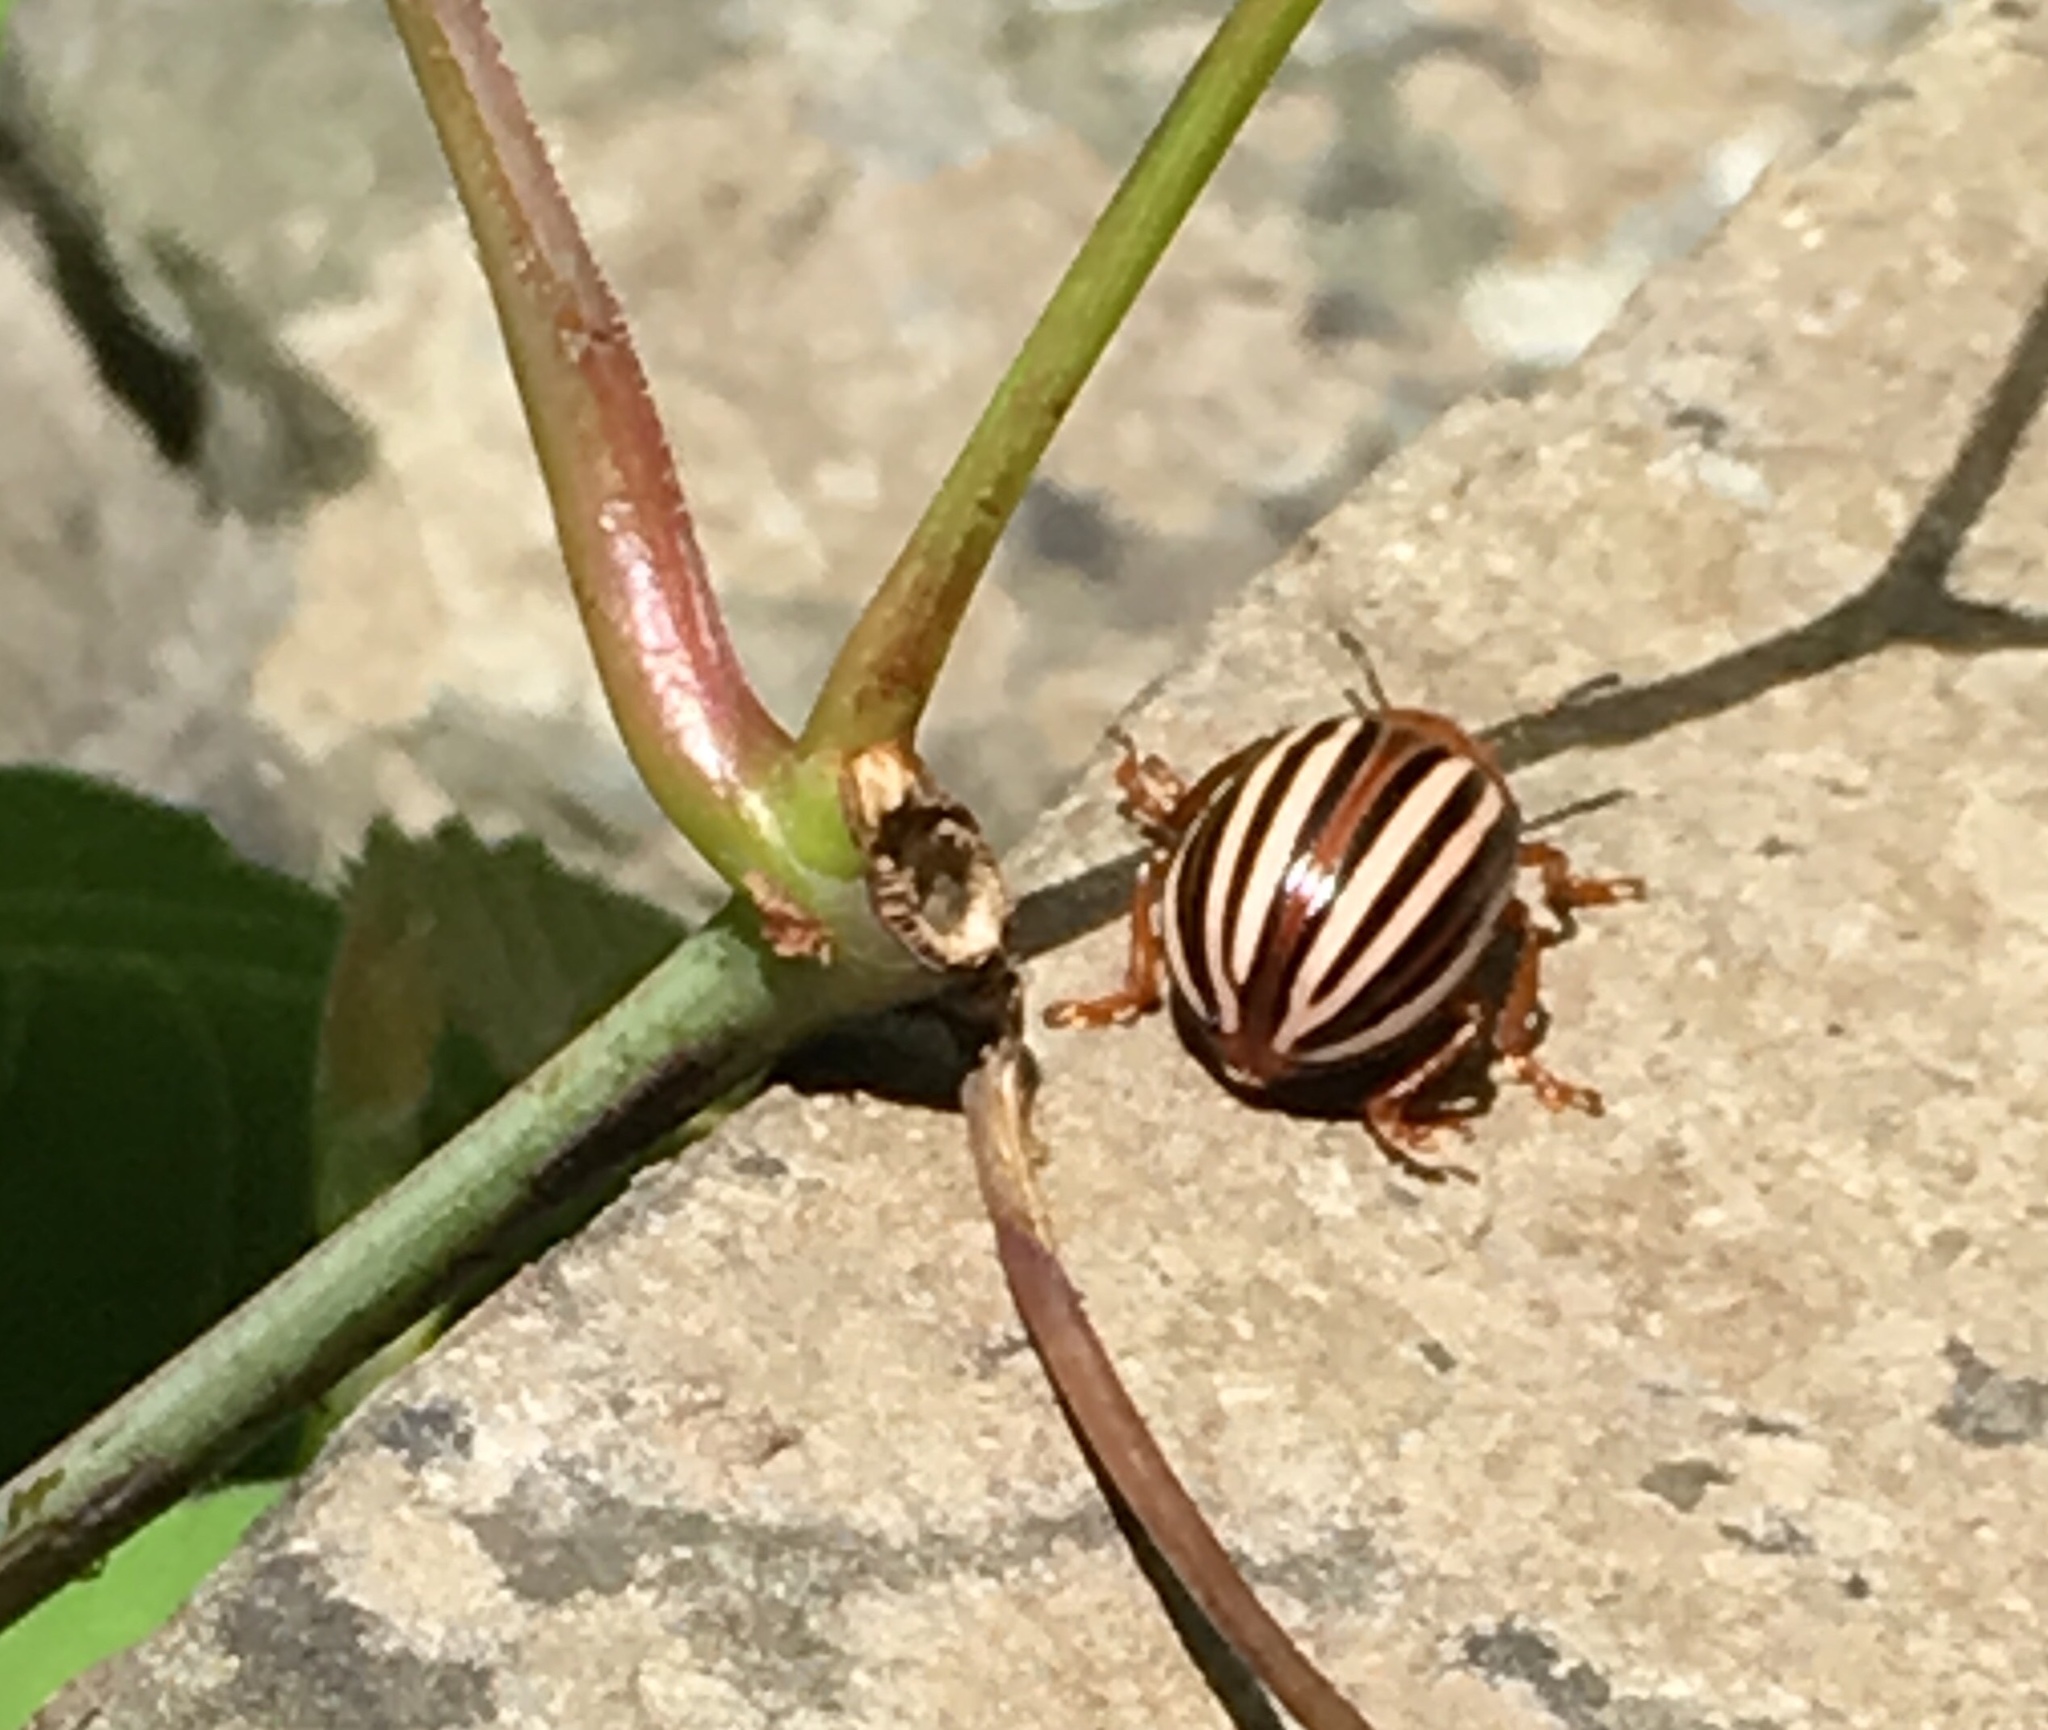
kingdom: Animalia
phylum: Arthropoda
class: Insecta
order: Coleoptera
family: Chrysomelidae
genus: Leptinotarsa
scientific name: Leptinotarsa juncta
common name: False potato beetle
